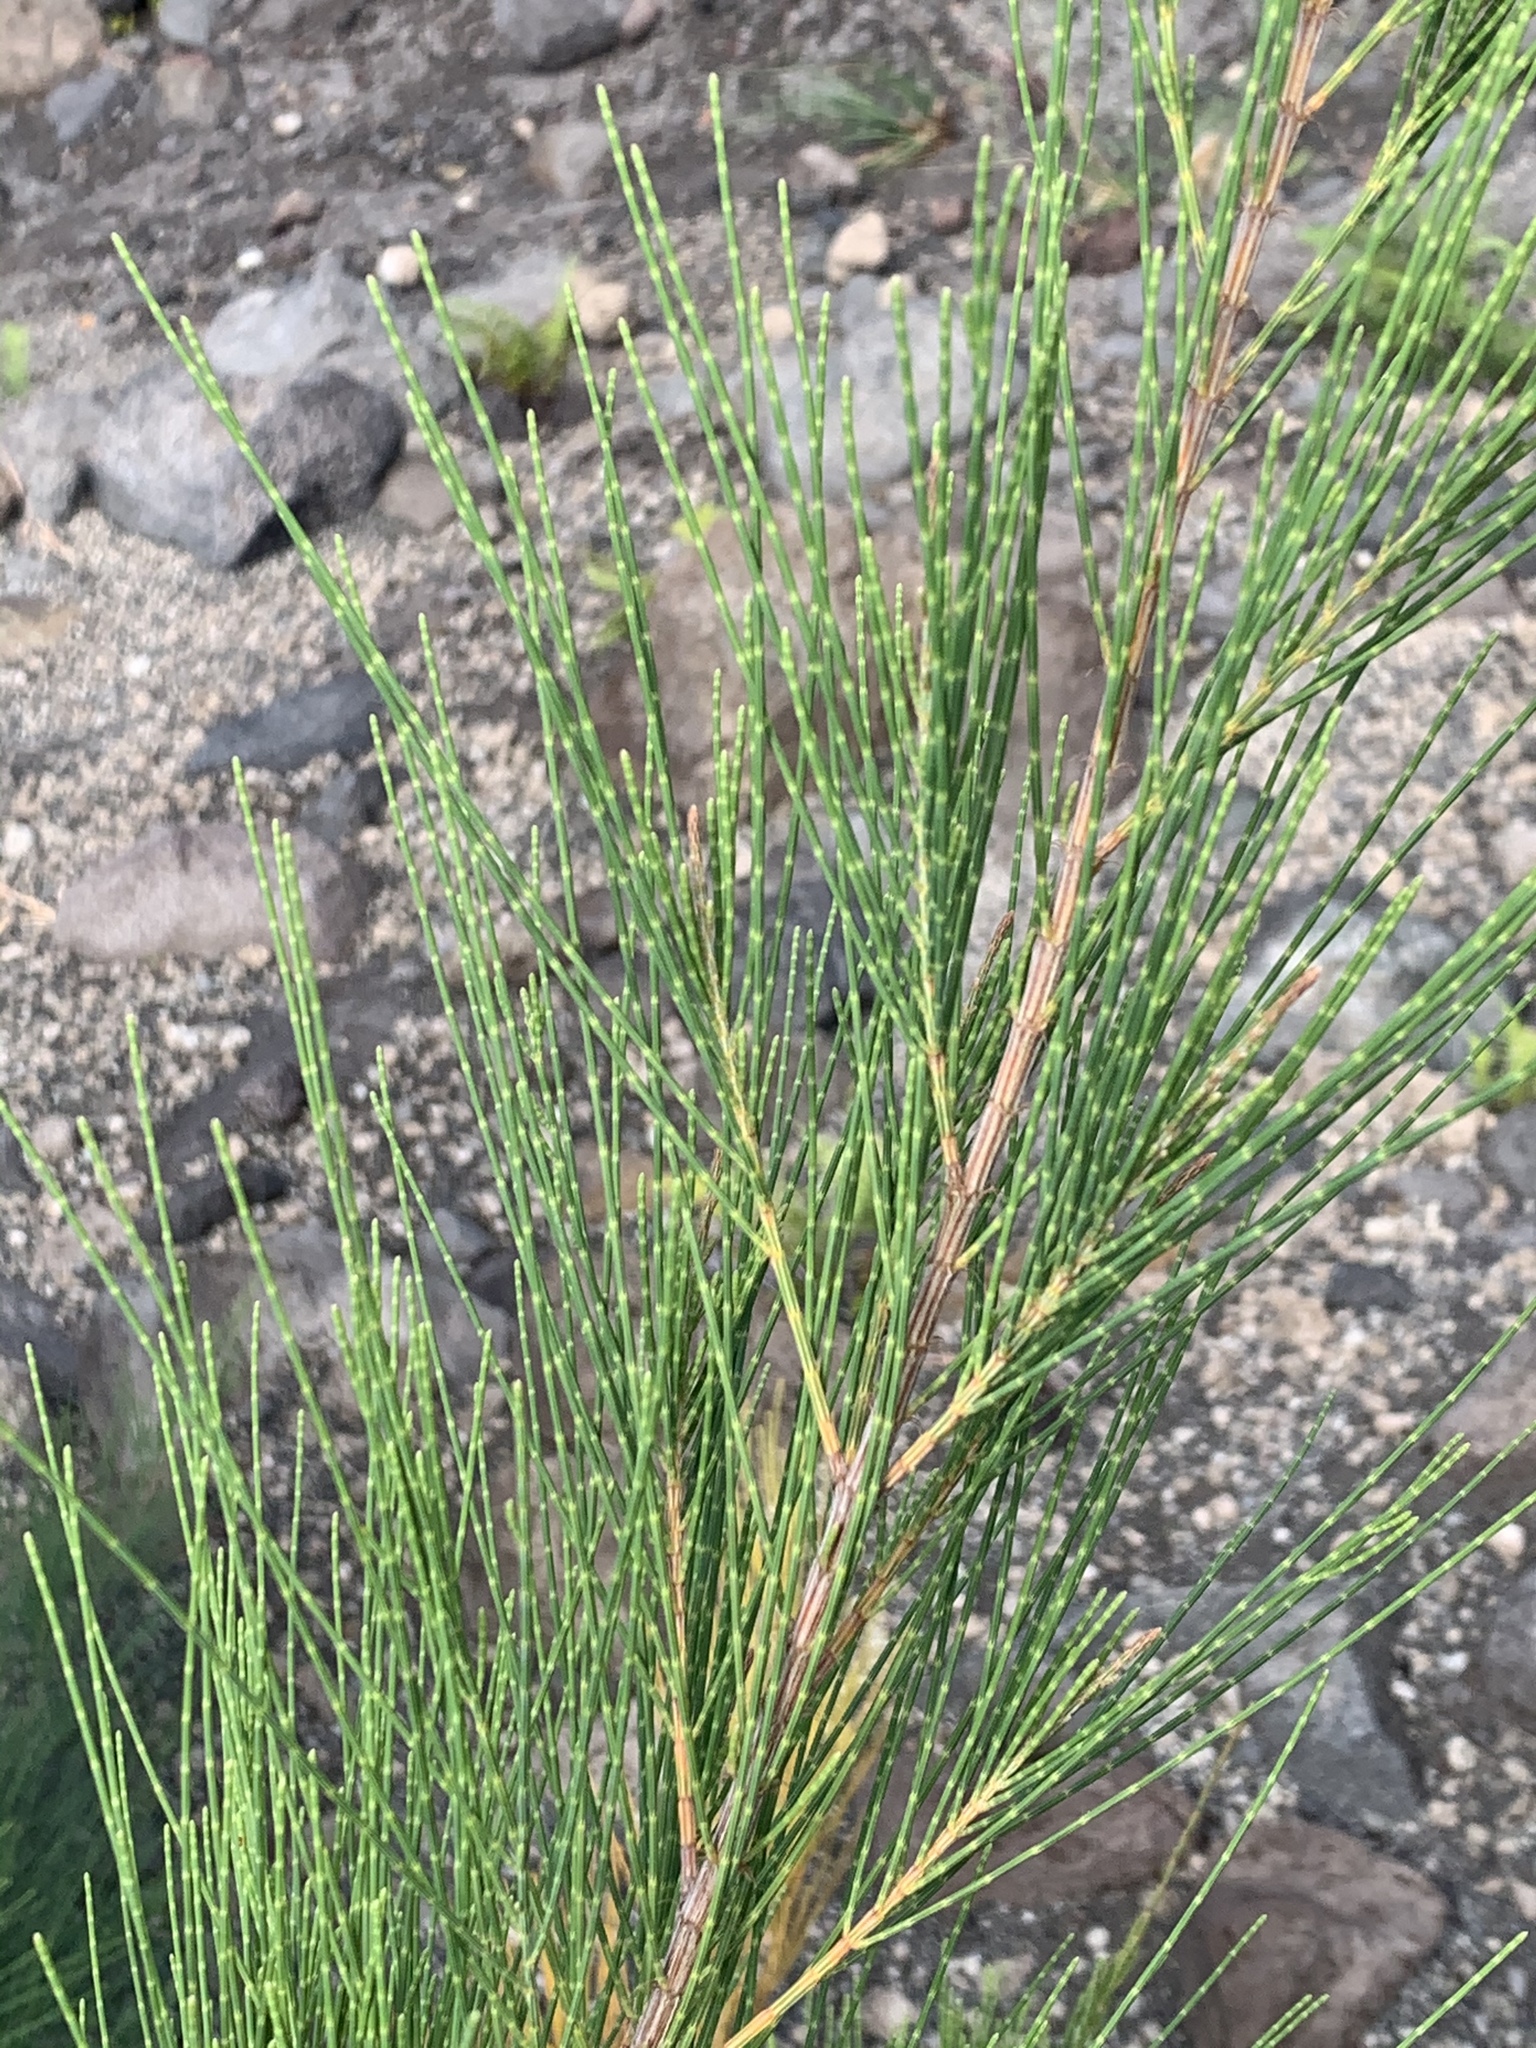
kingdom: Plantae
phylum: Tracheophyta
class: Magnoliopsida
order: Fagales
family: Casuarinaceae
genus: Casuarina
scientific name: Casuarina equisetifolia
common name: Beach sheoak
